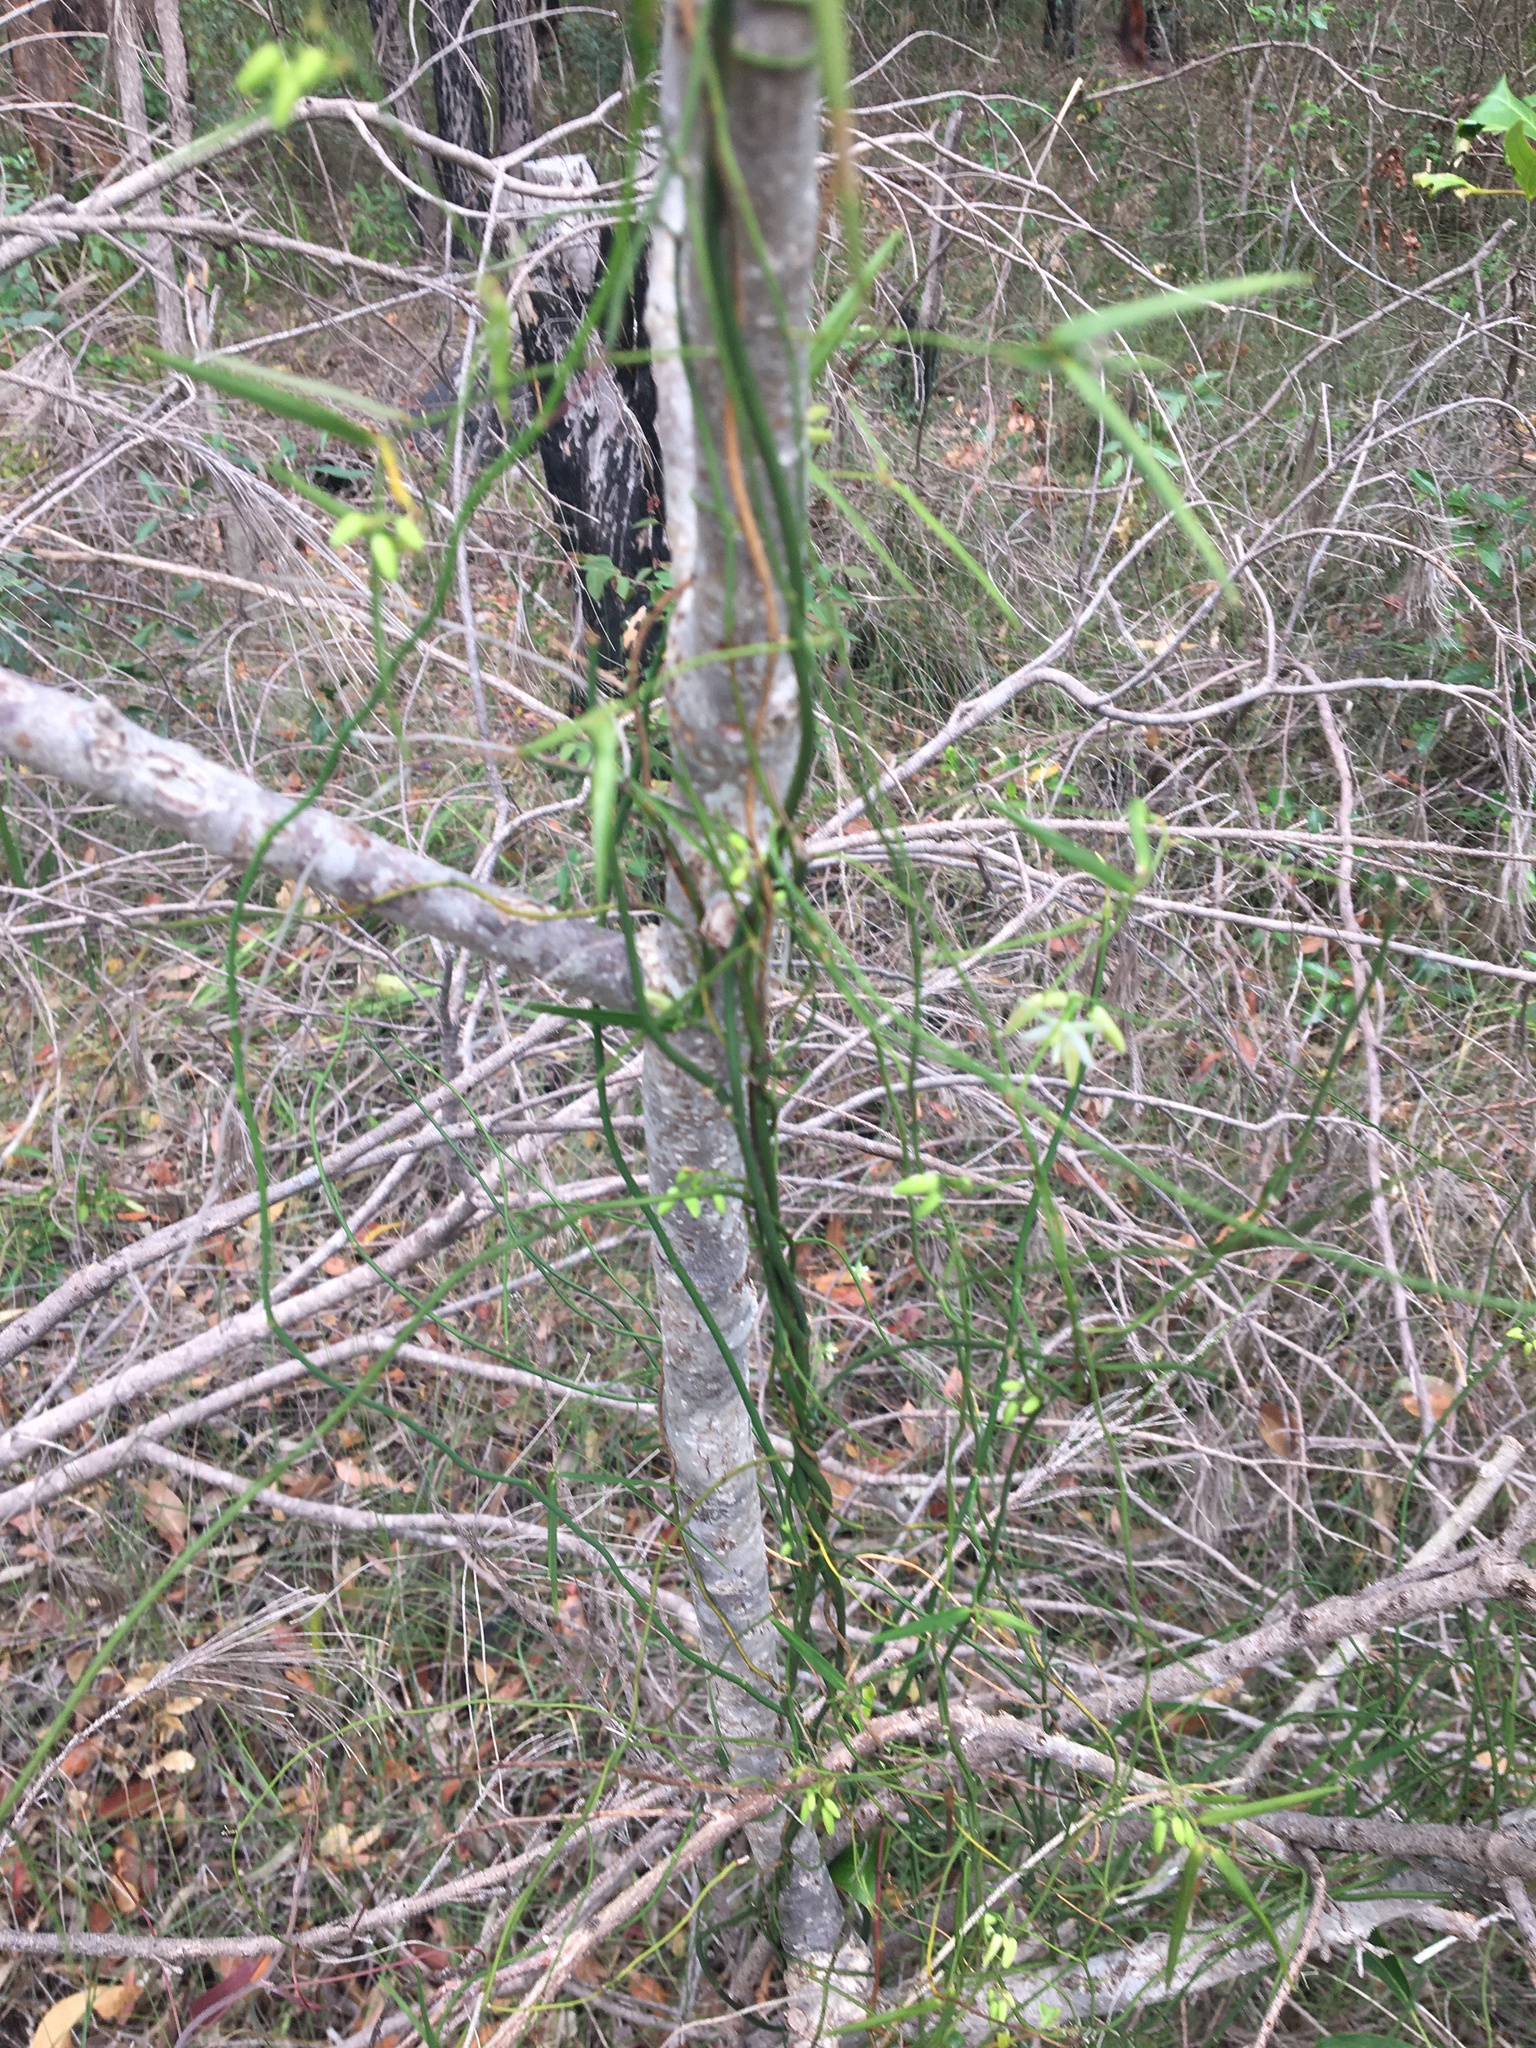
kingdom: Plantae
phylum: Tracheophyta
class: Liliopsida
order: Asparagales
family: Asphodelaceae
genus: Geitonoplesium
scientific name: Geitonoplesium cymosum
